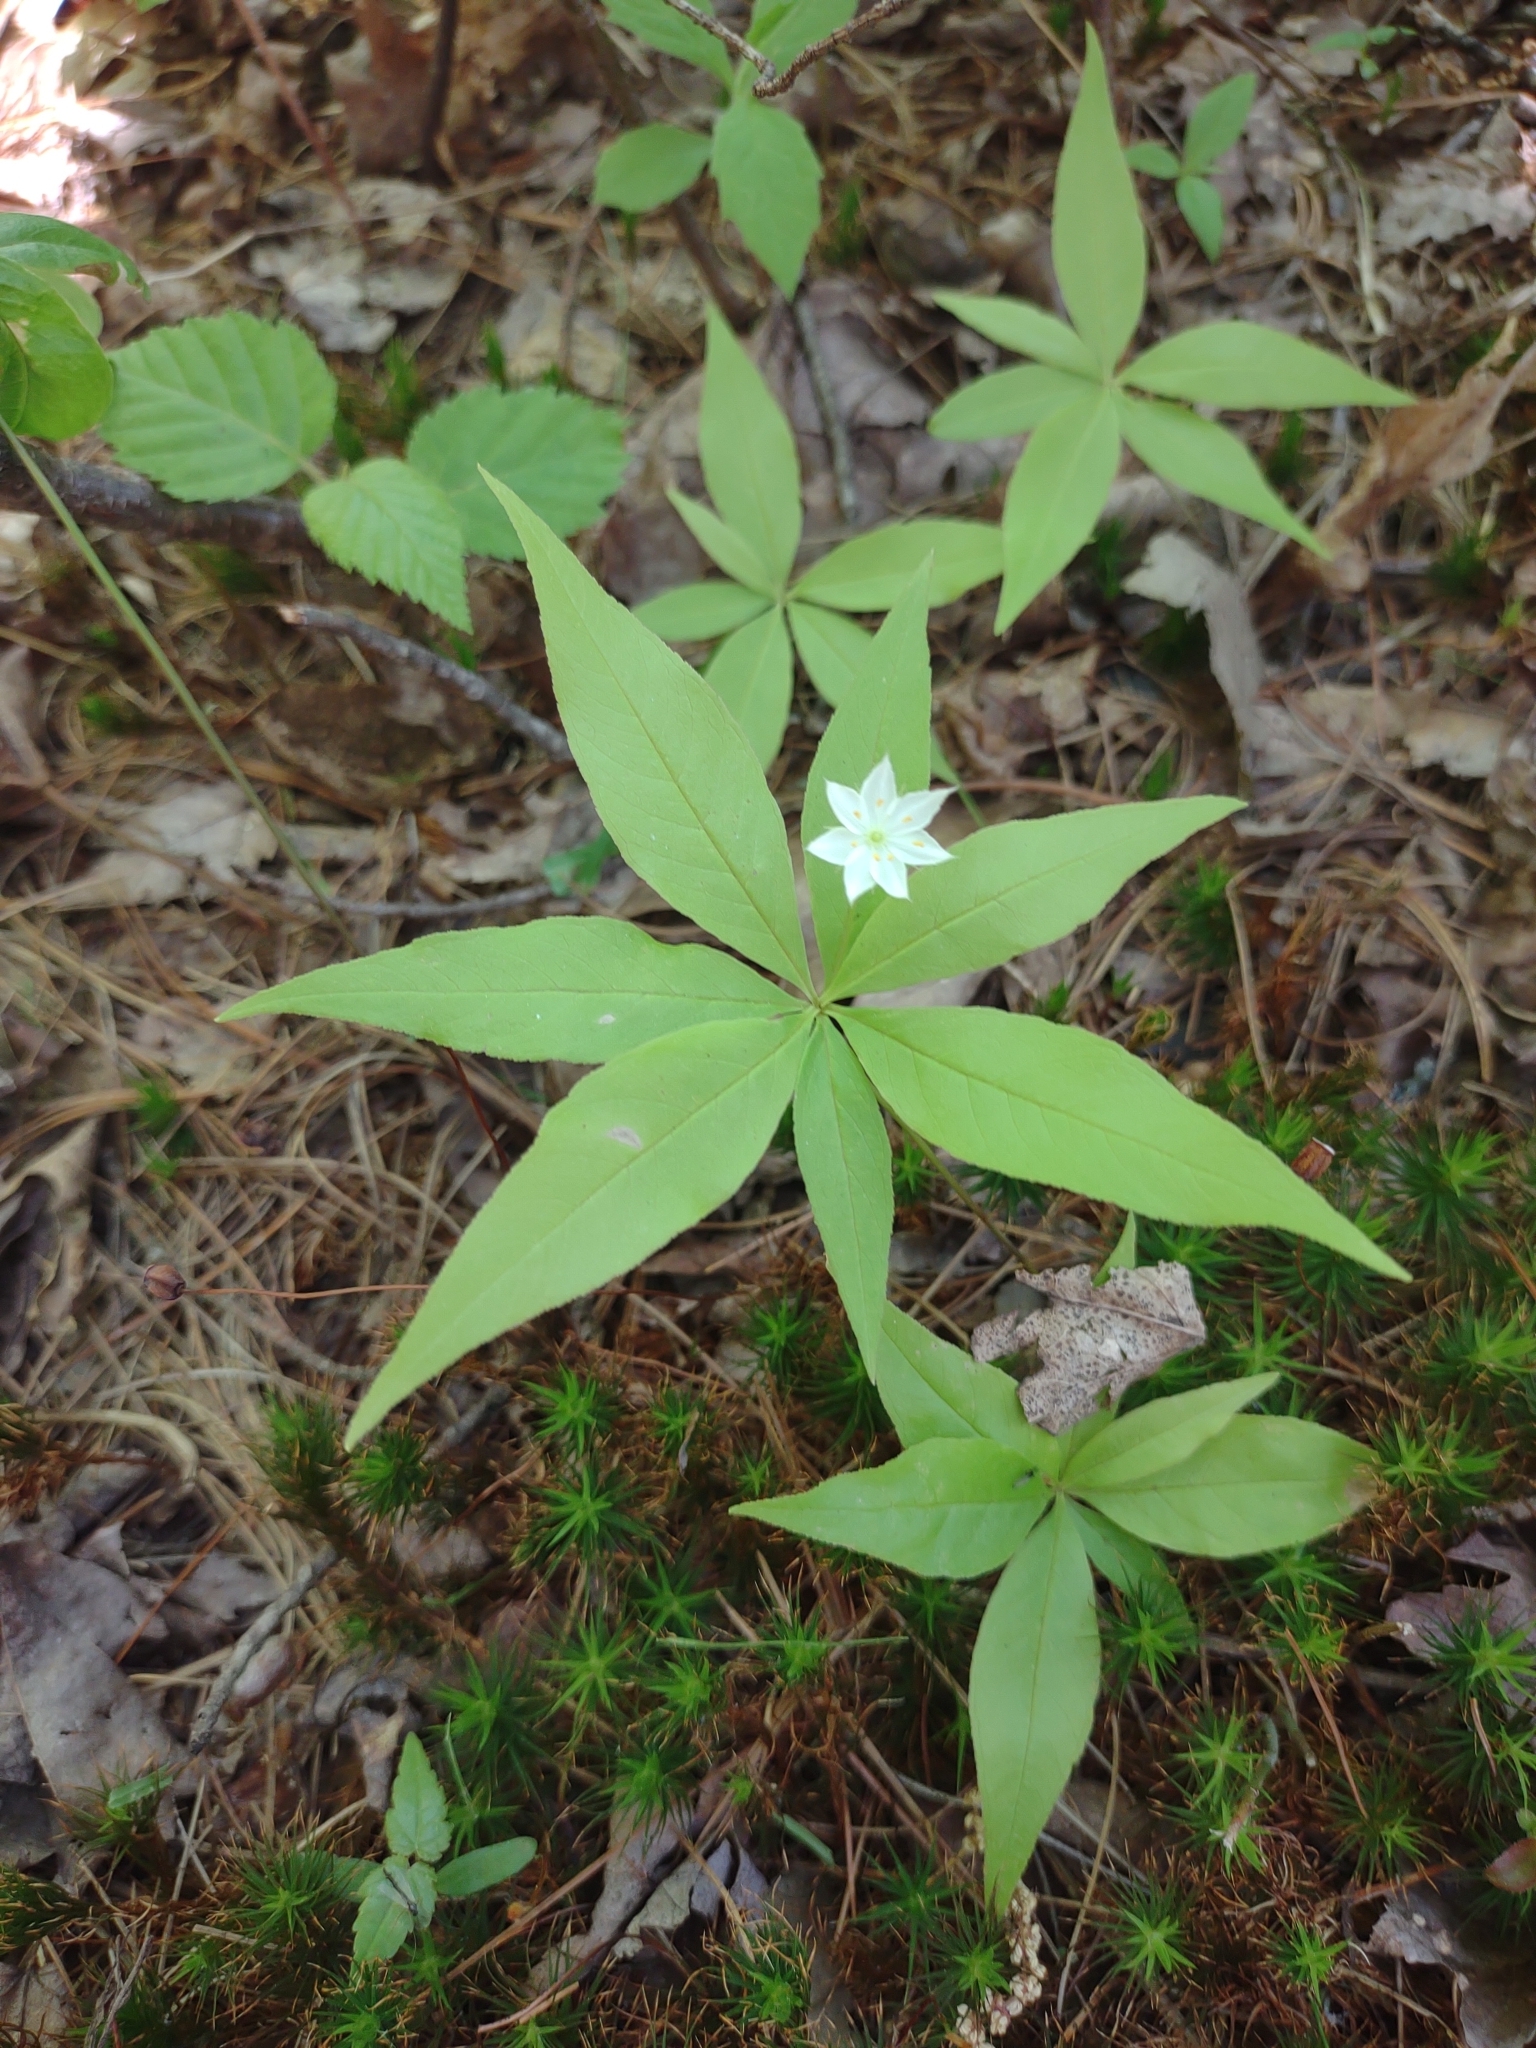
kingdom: Plantae
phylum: Tracheophyta
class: Magnoliopsida
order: Ericales
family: Primulaceae
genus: Lysimachia
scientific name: Lysimachia borealis
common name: American starflower
